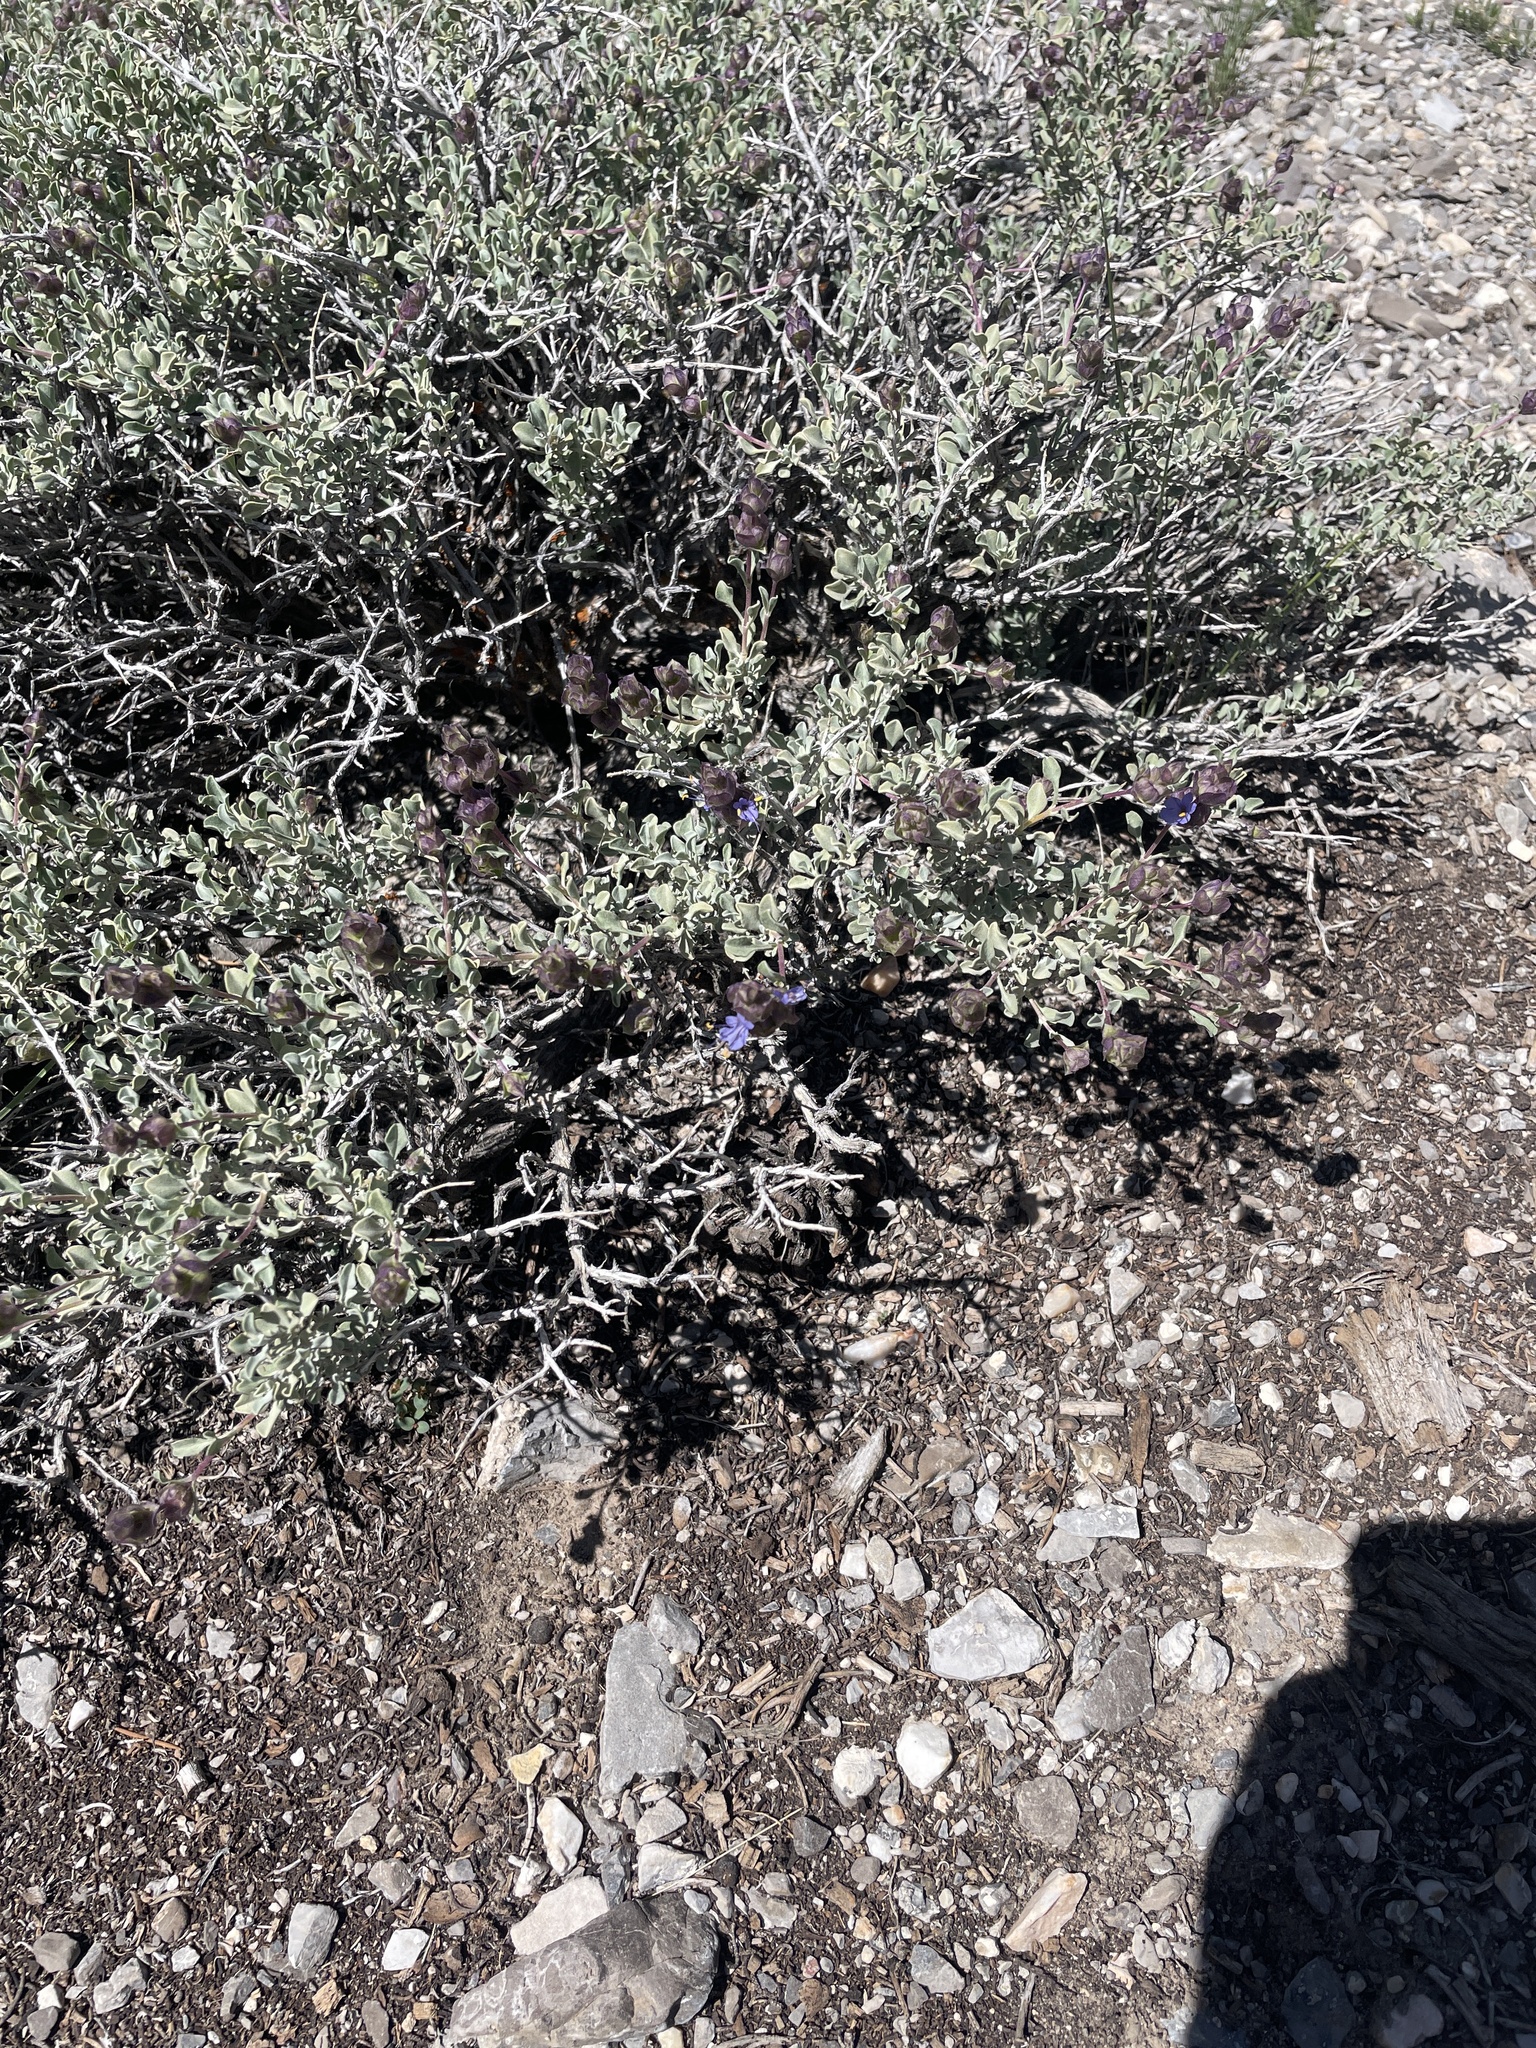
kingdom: Plantae
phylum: Tracheophyta
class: Magnoliopsida
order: Lamiales
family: Lamiaceae
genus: Salvia
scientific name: Salvia dorrii
